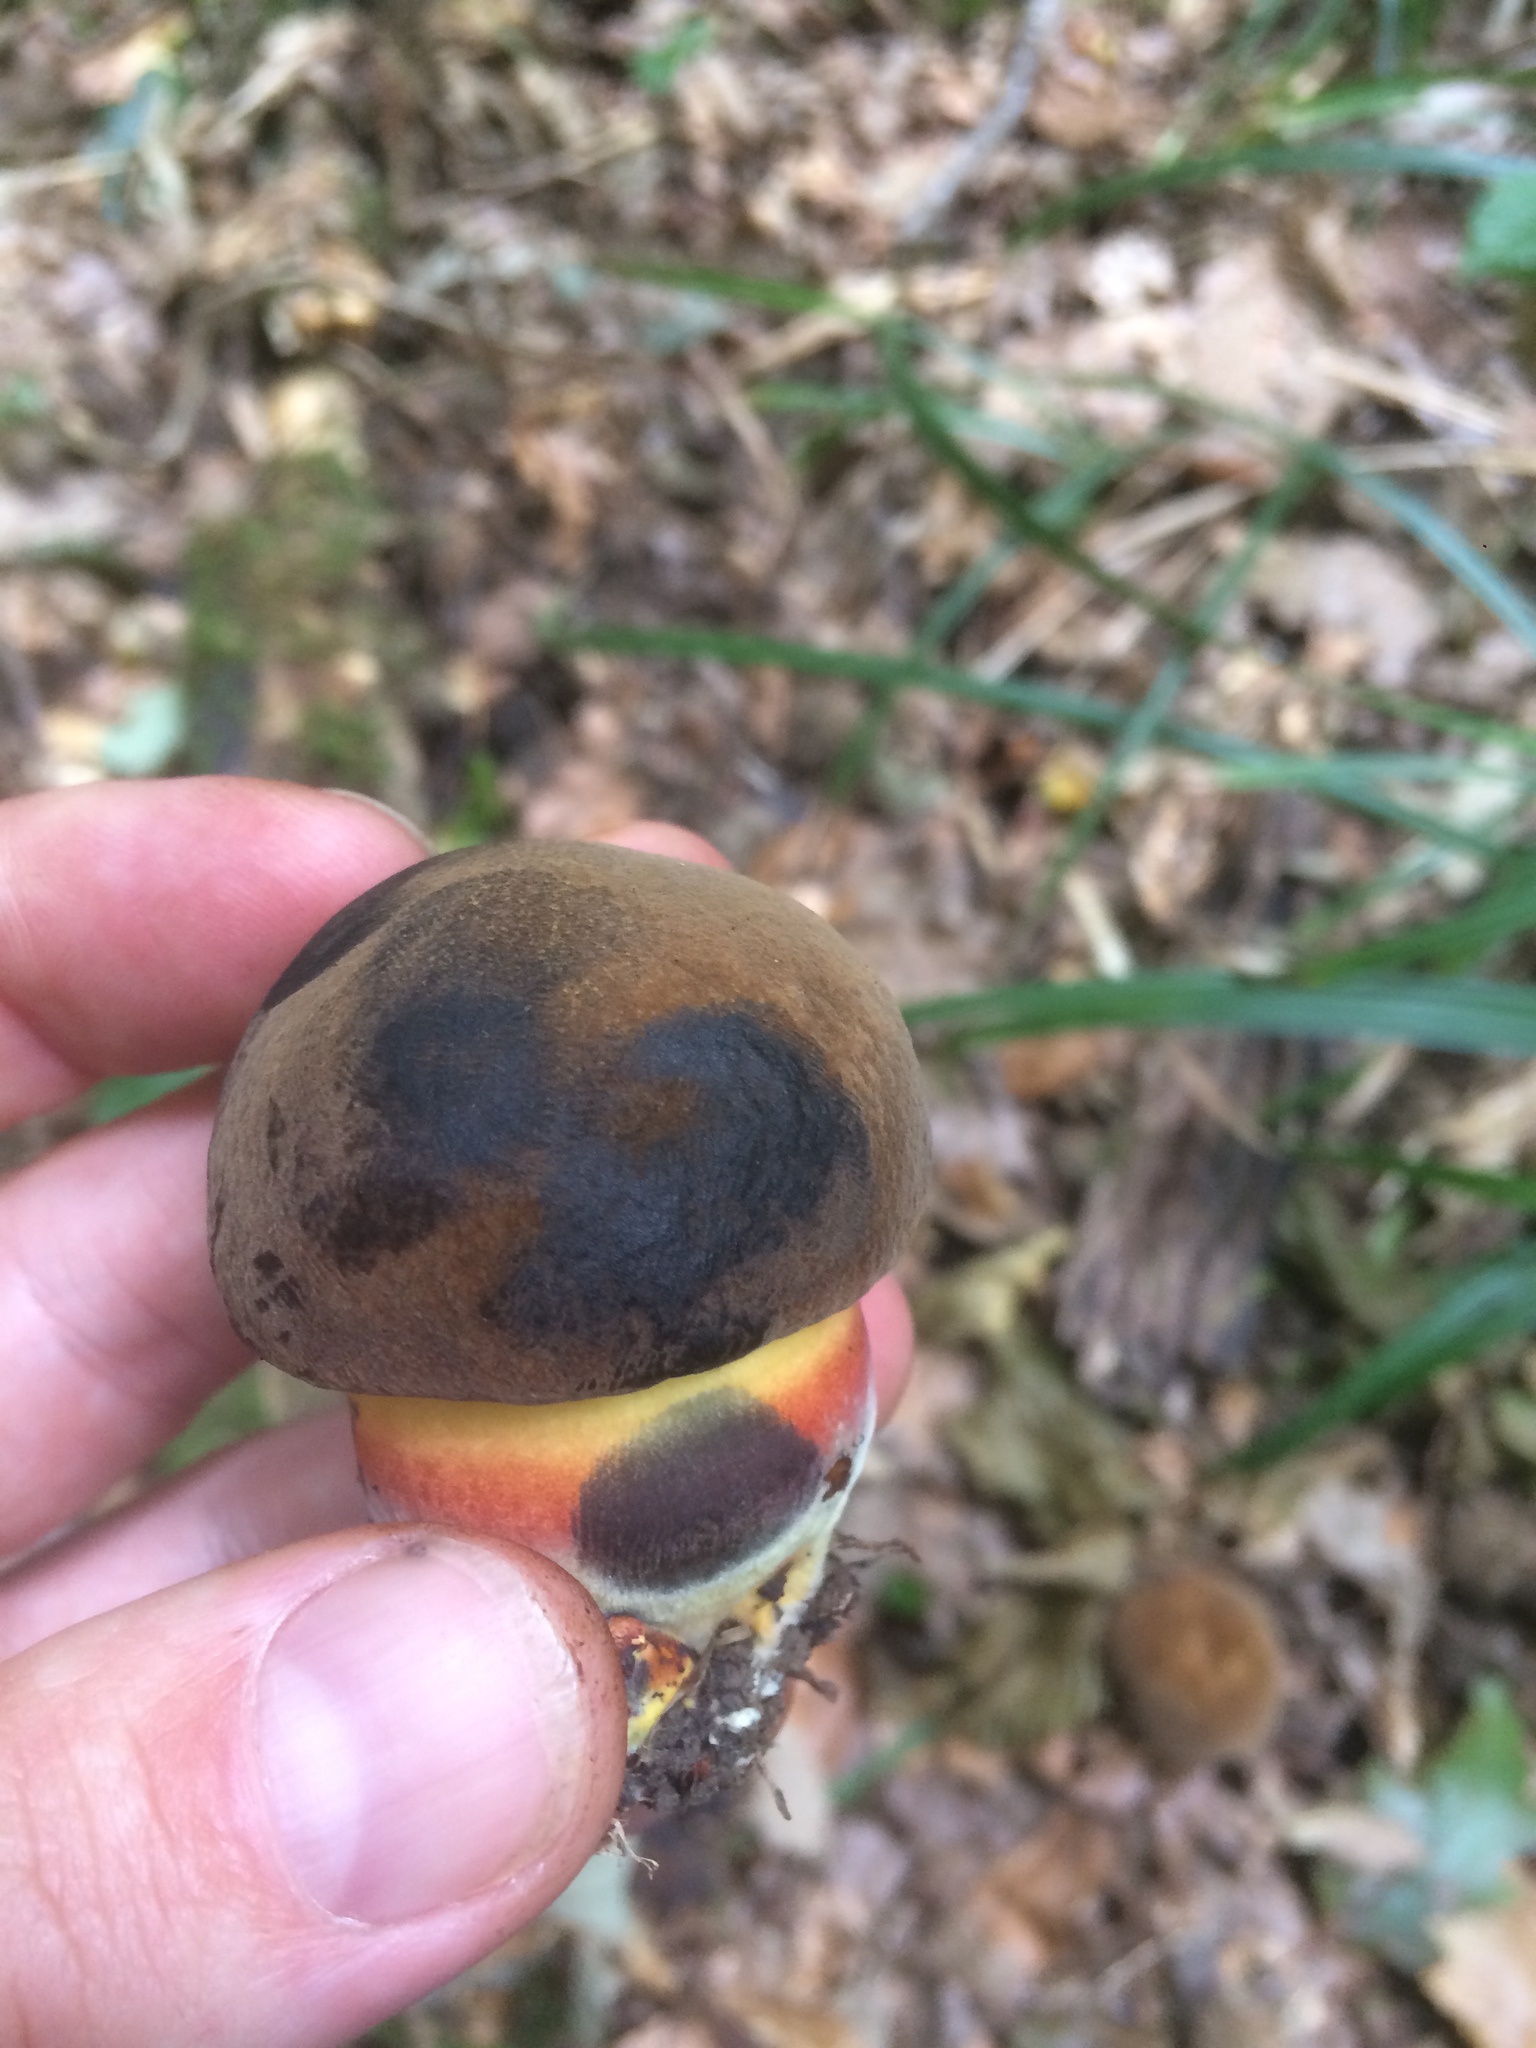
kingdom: Fungi
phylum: Basidiomycota
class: Agaricomycetes
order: Boletales
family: Boletaceae
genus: Neoboletus
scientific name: Neoboletus luridiformis
